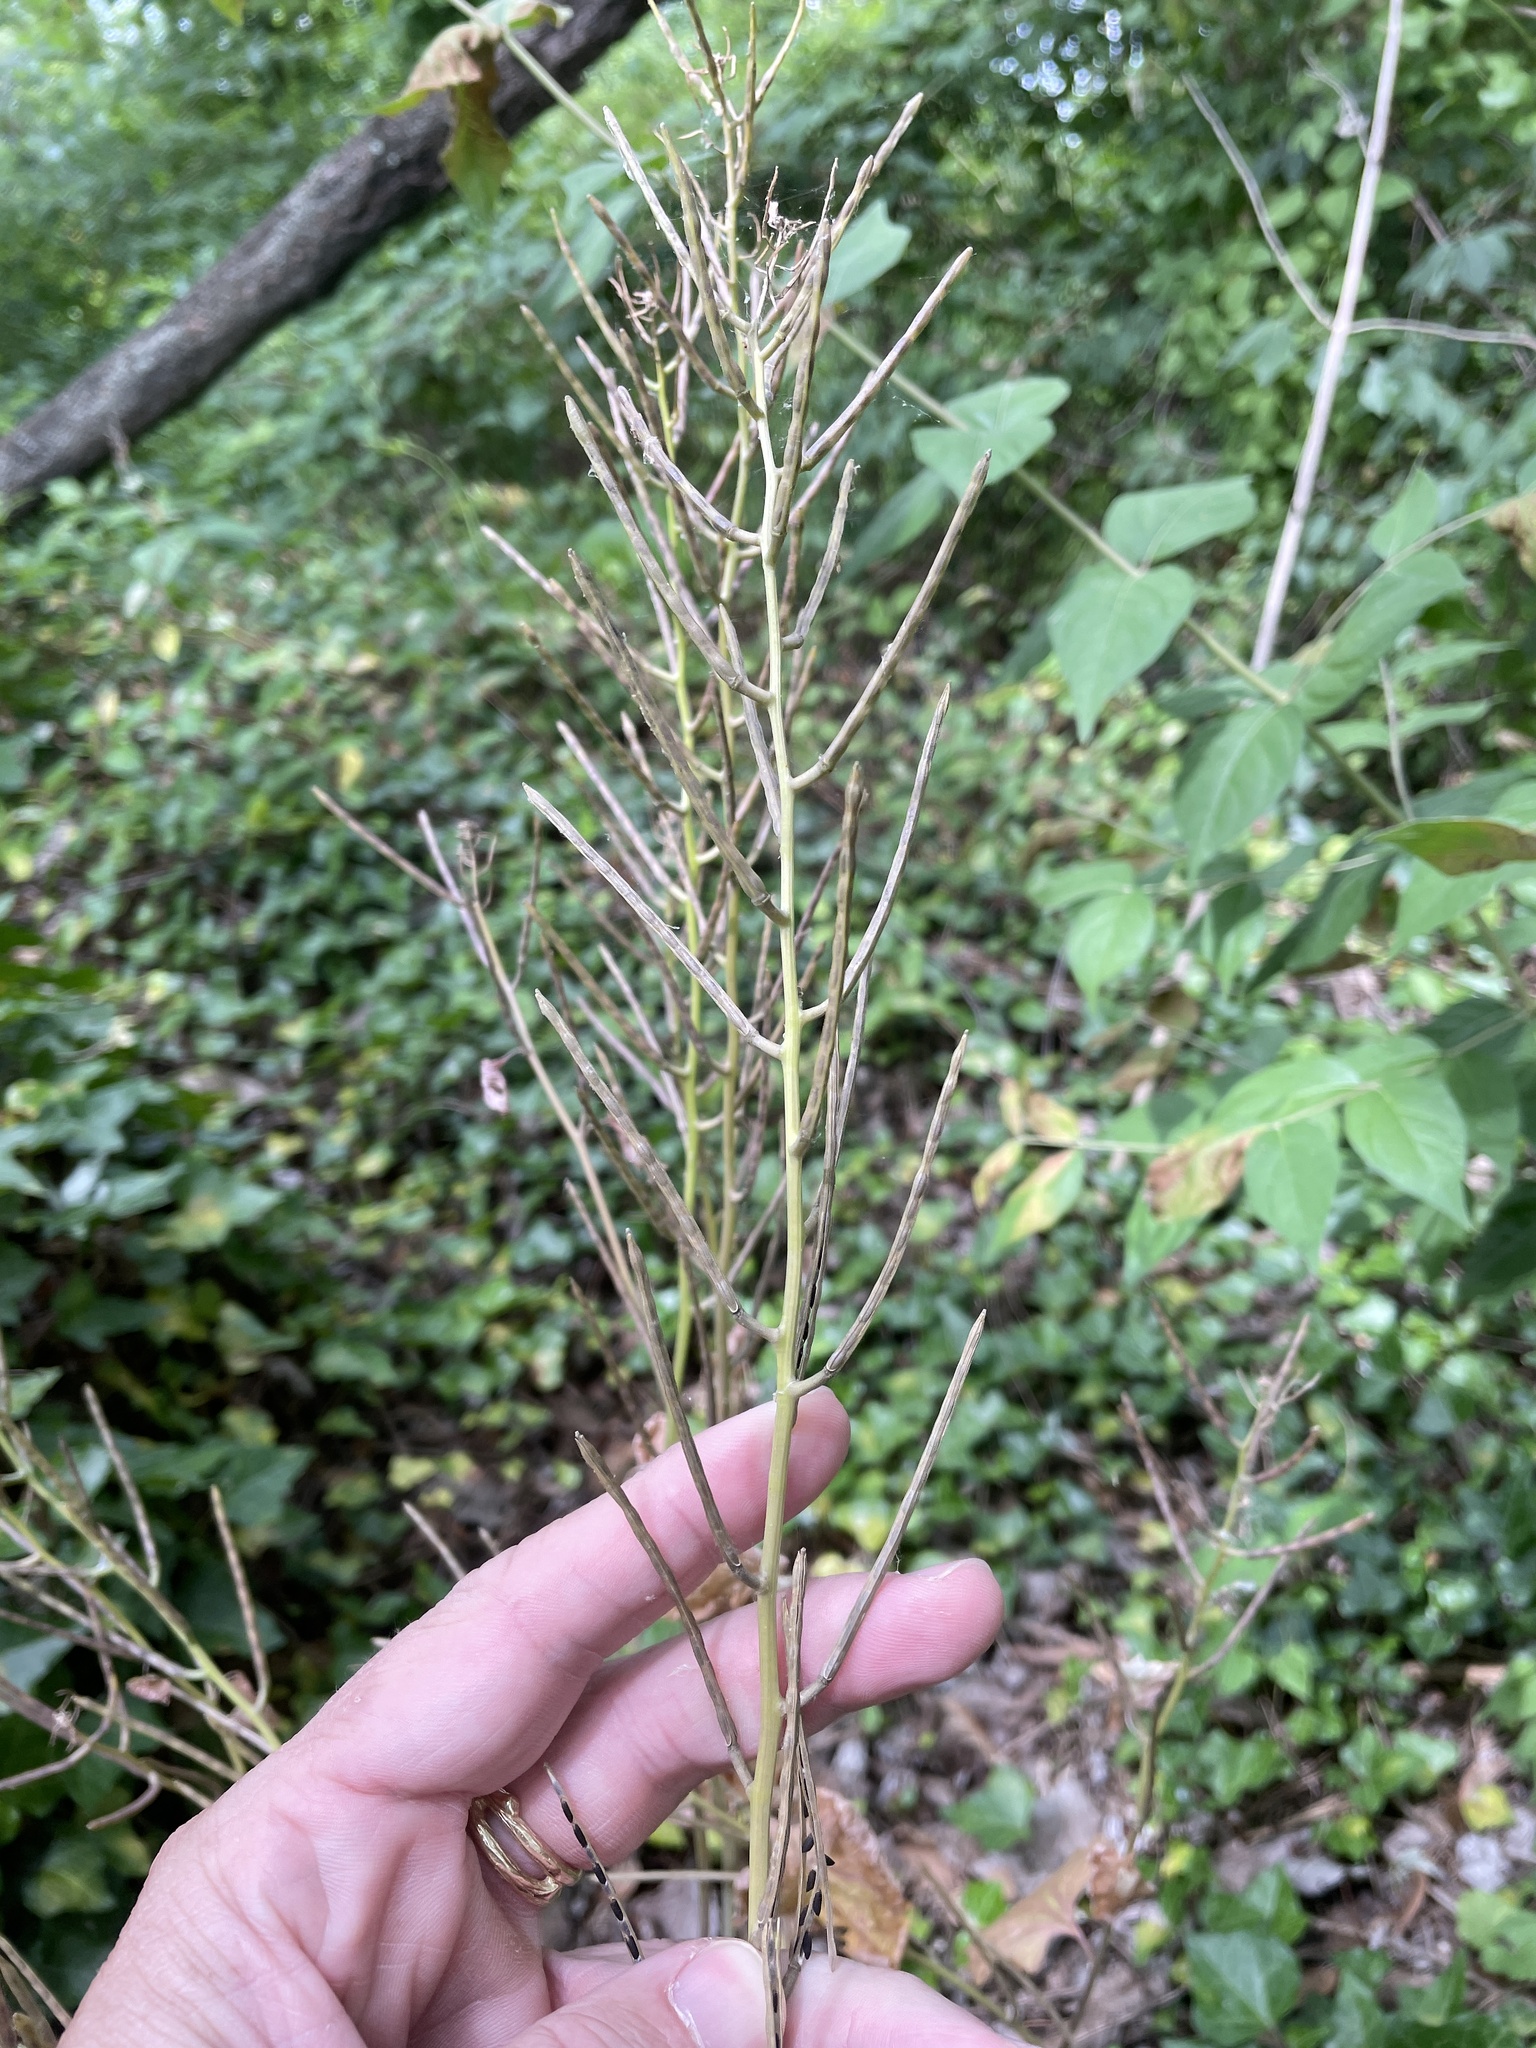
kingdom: Plantae
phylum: Tracheophyta
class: Magnoliopsida
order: Brassicales
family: Brassicaceae
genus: Alliaria
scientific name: Alliaria petiolata
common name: Garlic mustard
